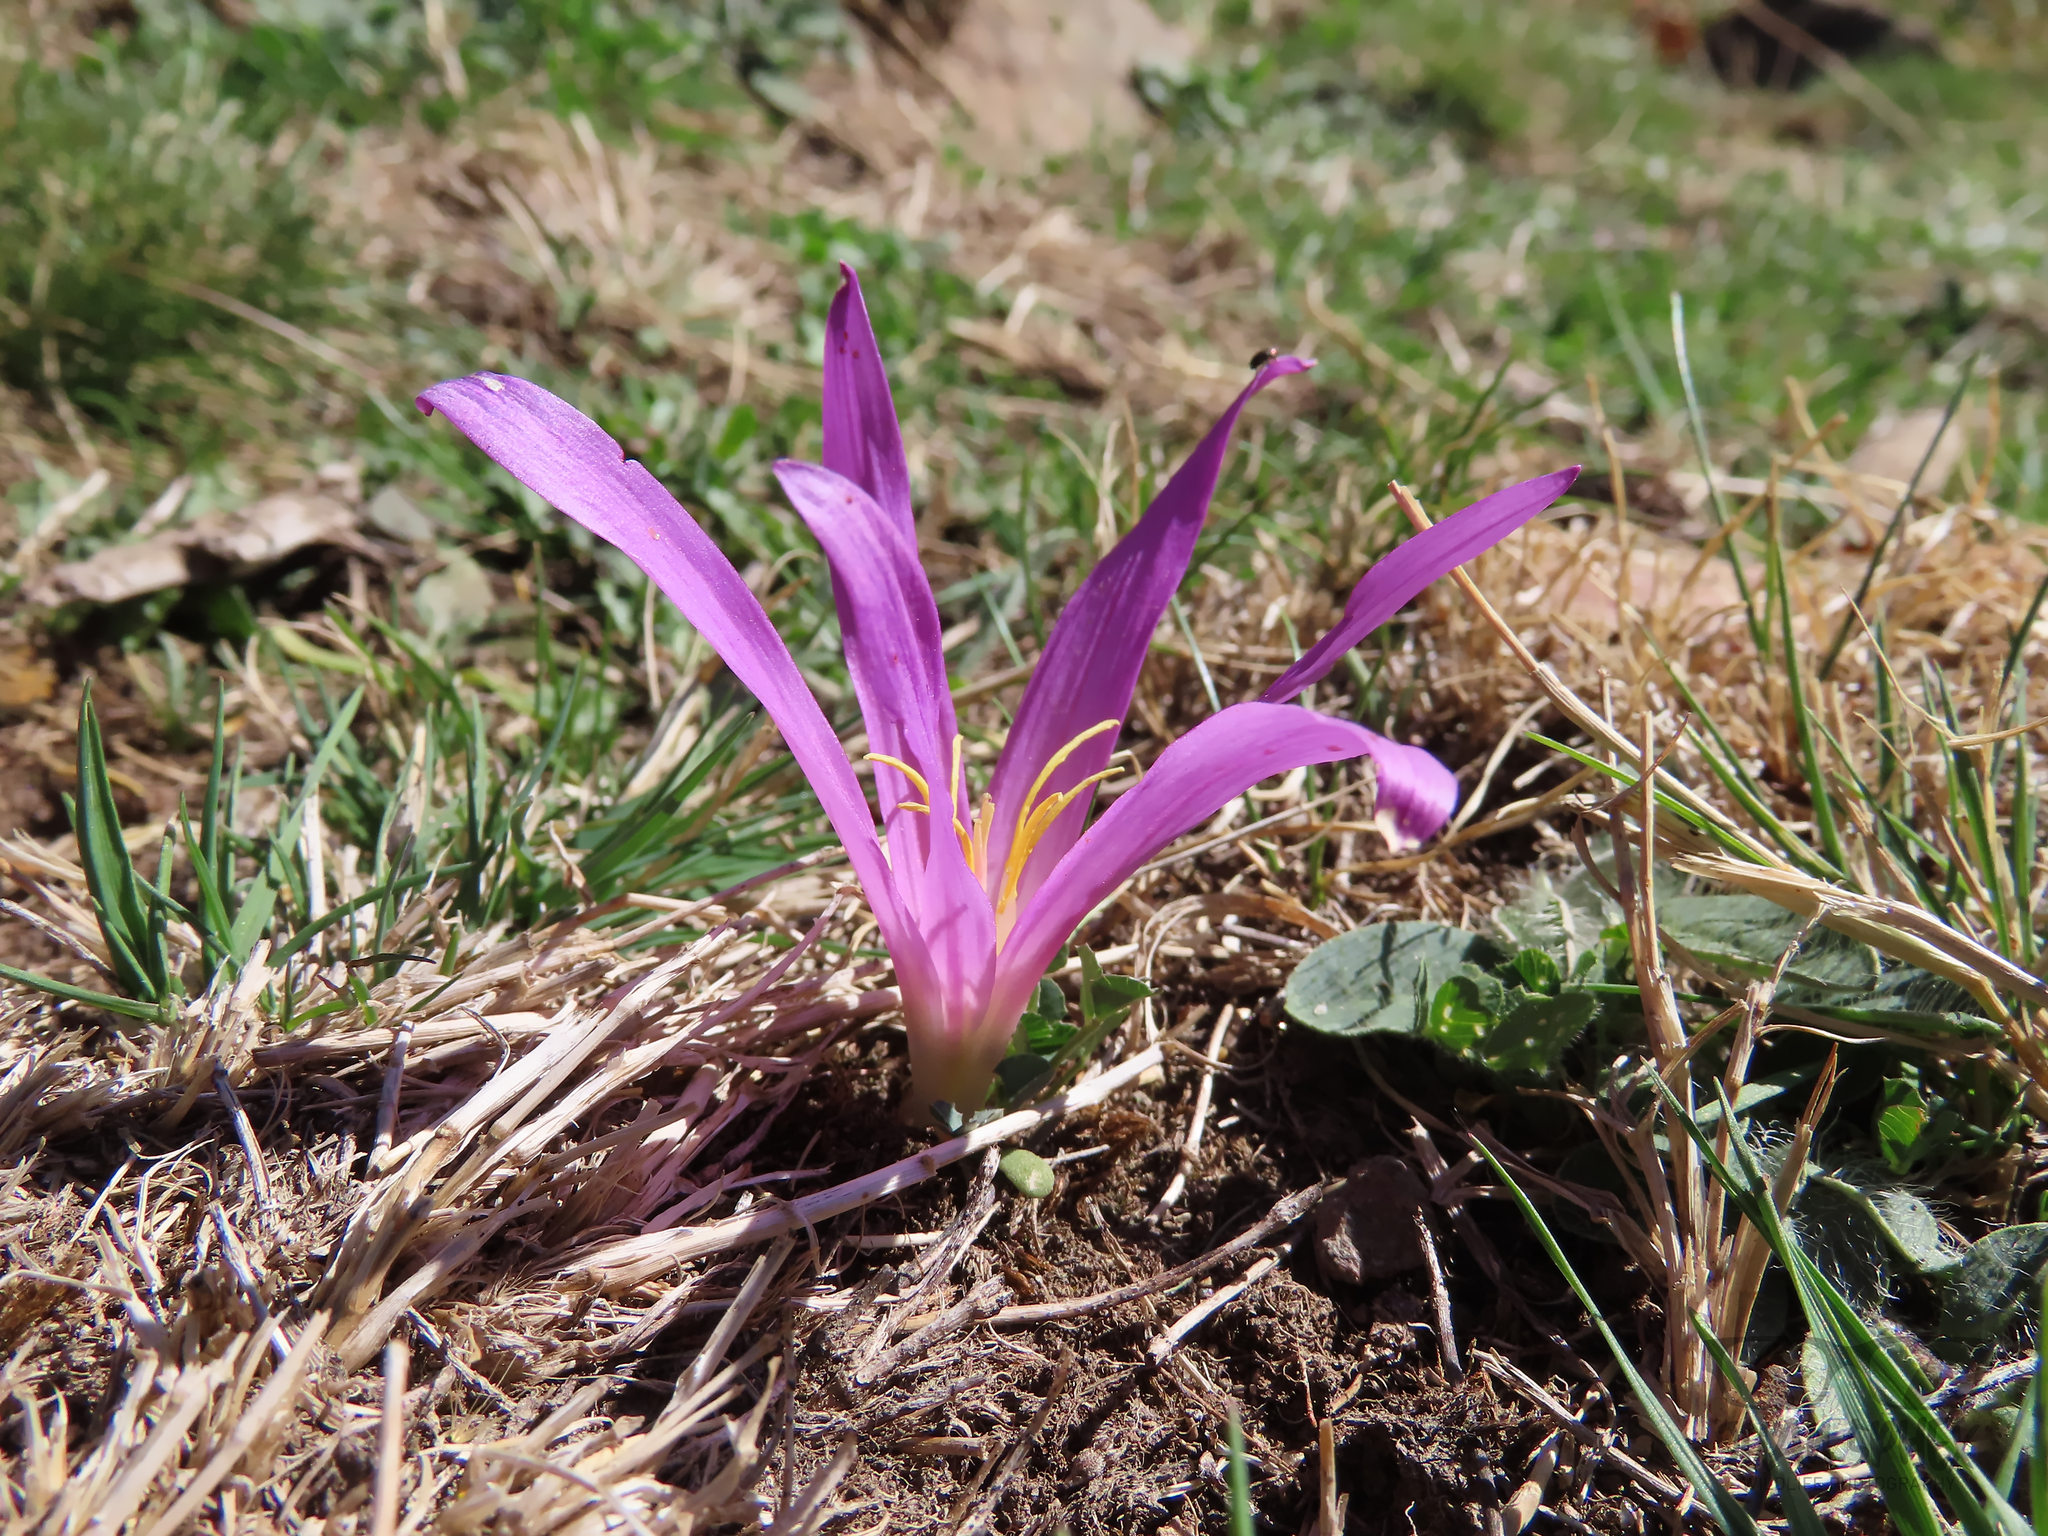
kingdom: Plantae
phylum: Tracheophyta
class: Liliopsida
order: Liliales
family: Colchicaceae
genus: Colchicum
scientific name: Colchicum montanum
